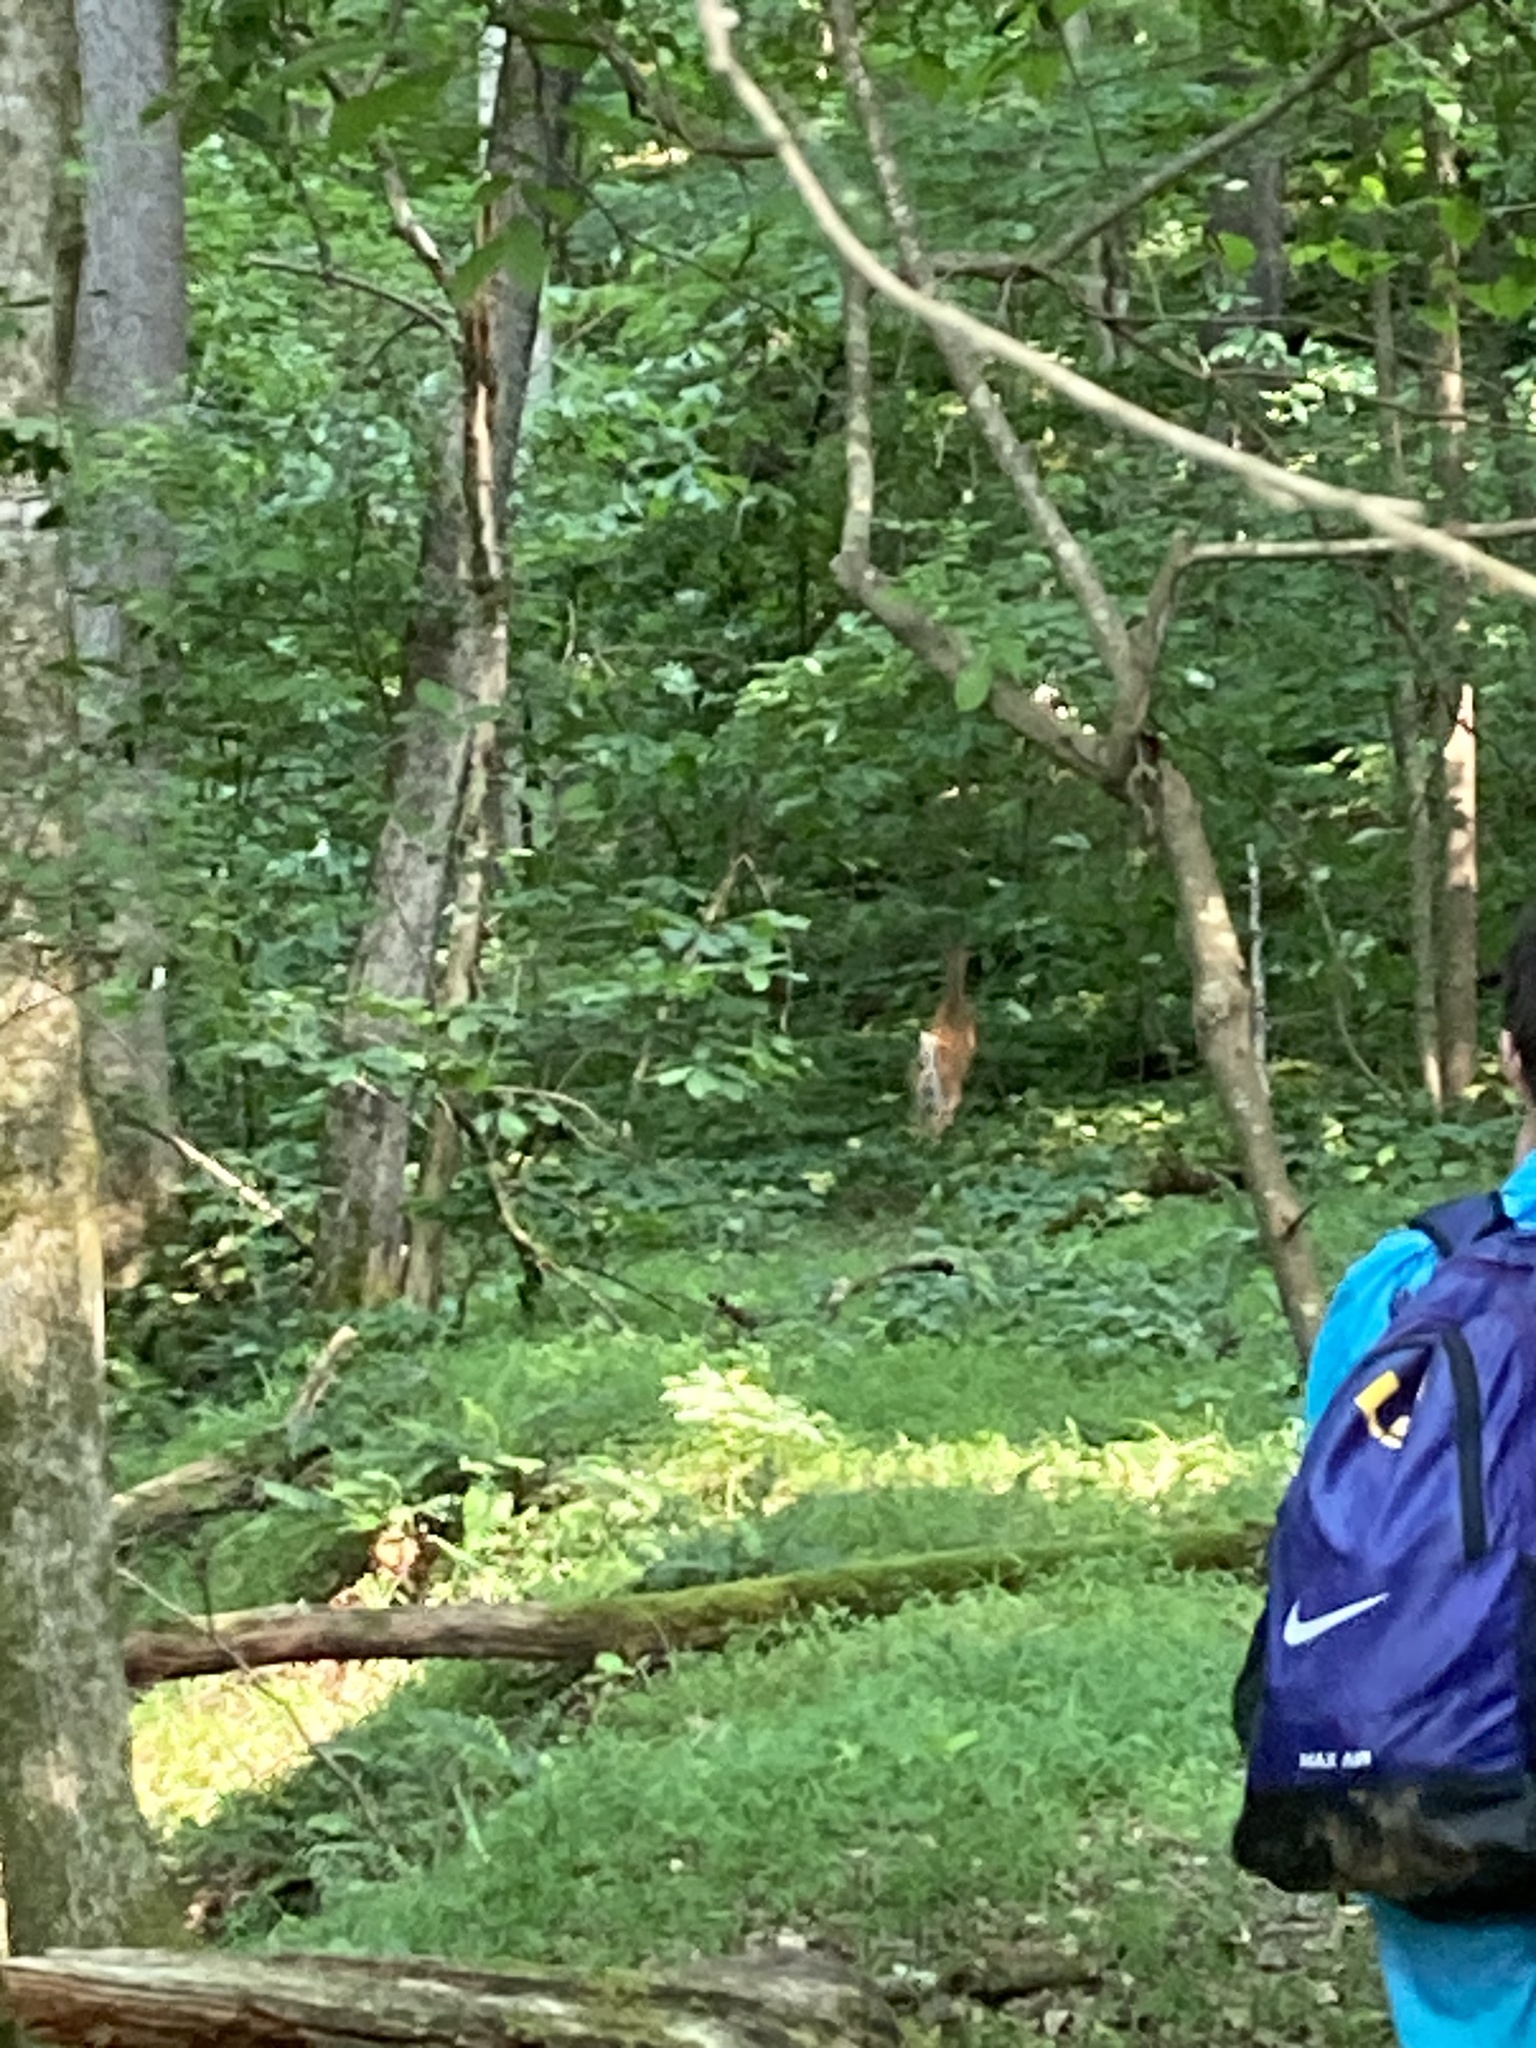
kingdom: Animalia
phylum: Chordata
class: Mammalia
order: Artiodactyla
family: Cervidae
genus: Odocoileus
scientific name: Odocoileus virginianus
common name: White-tailed deer
